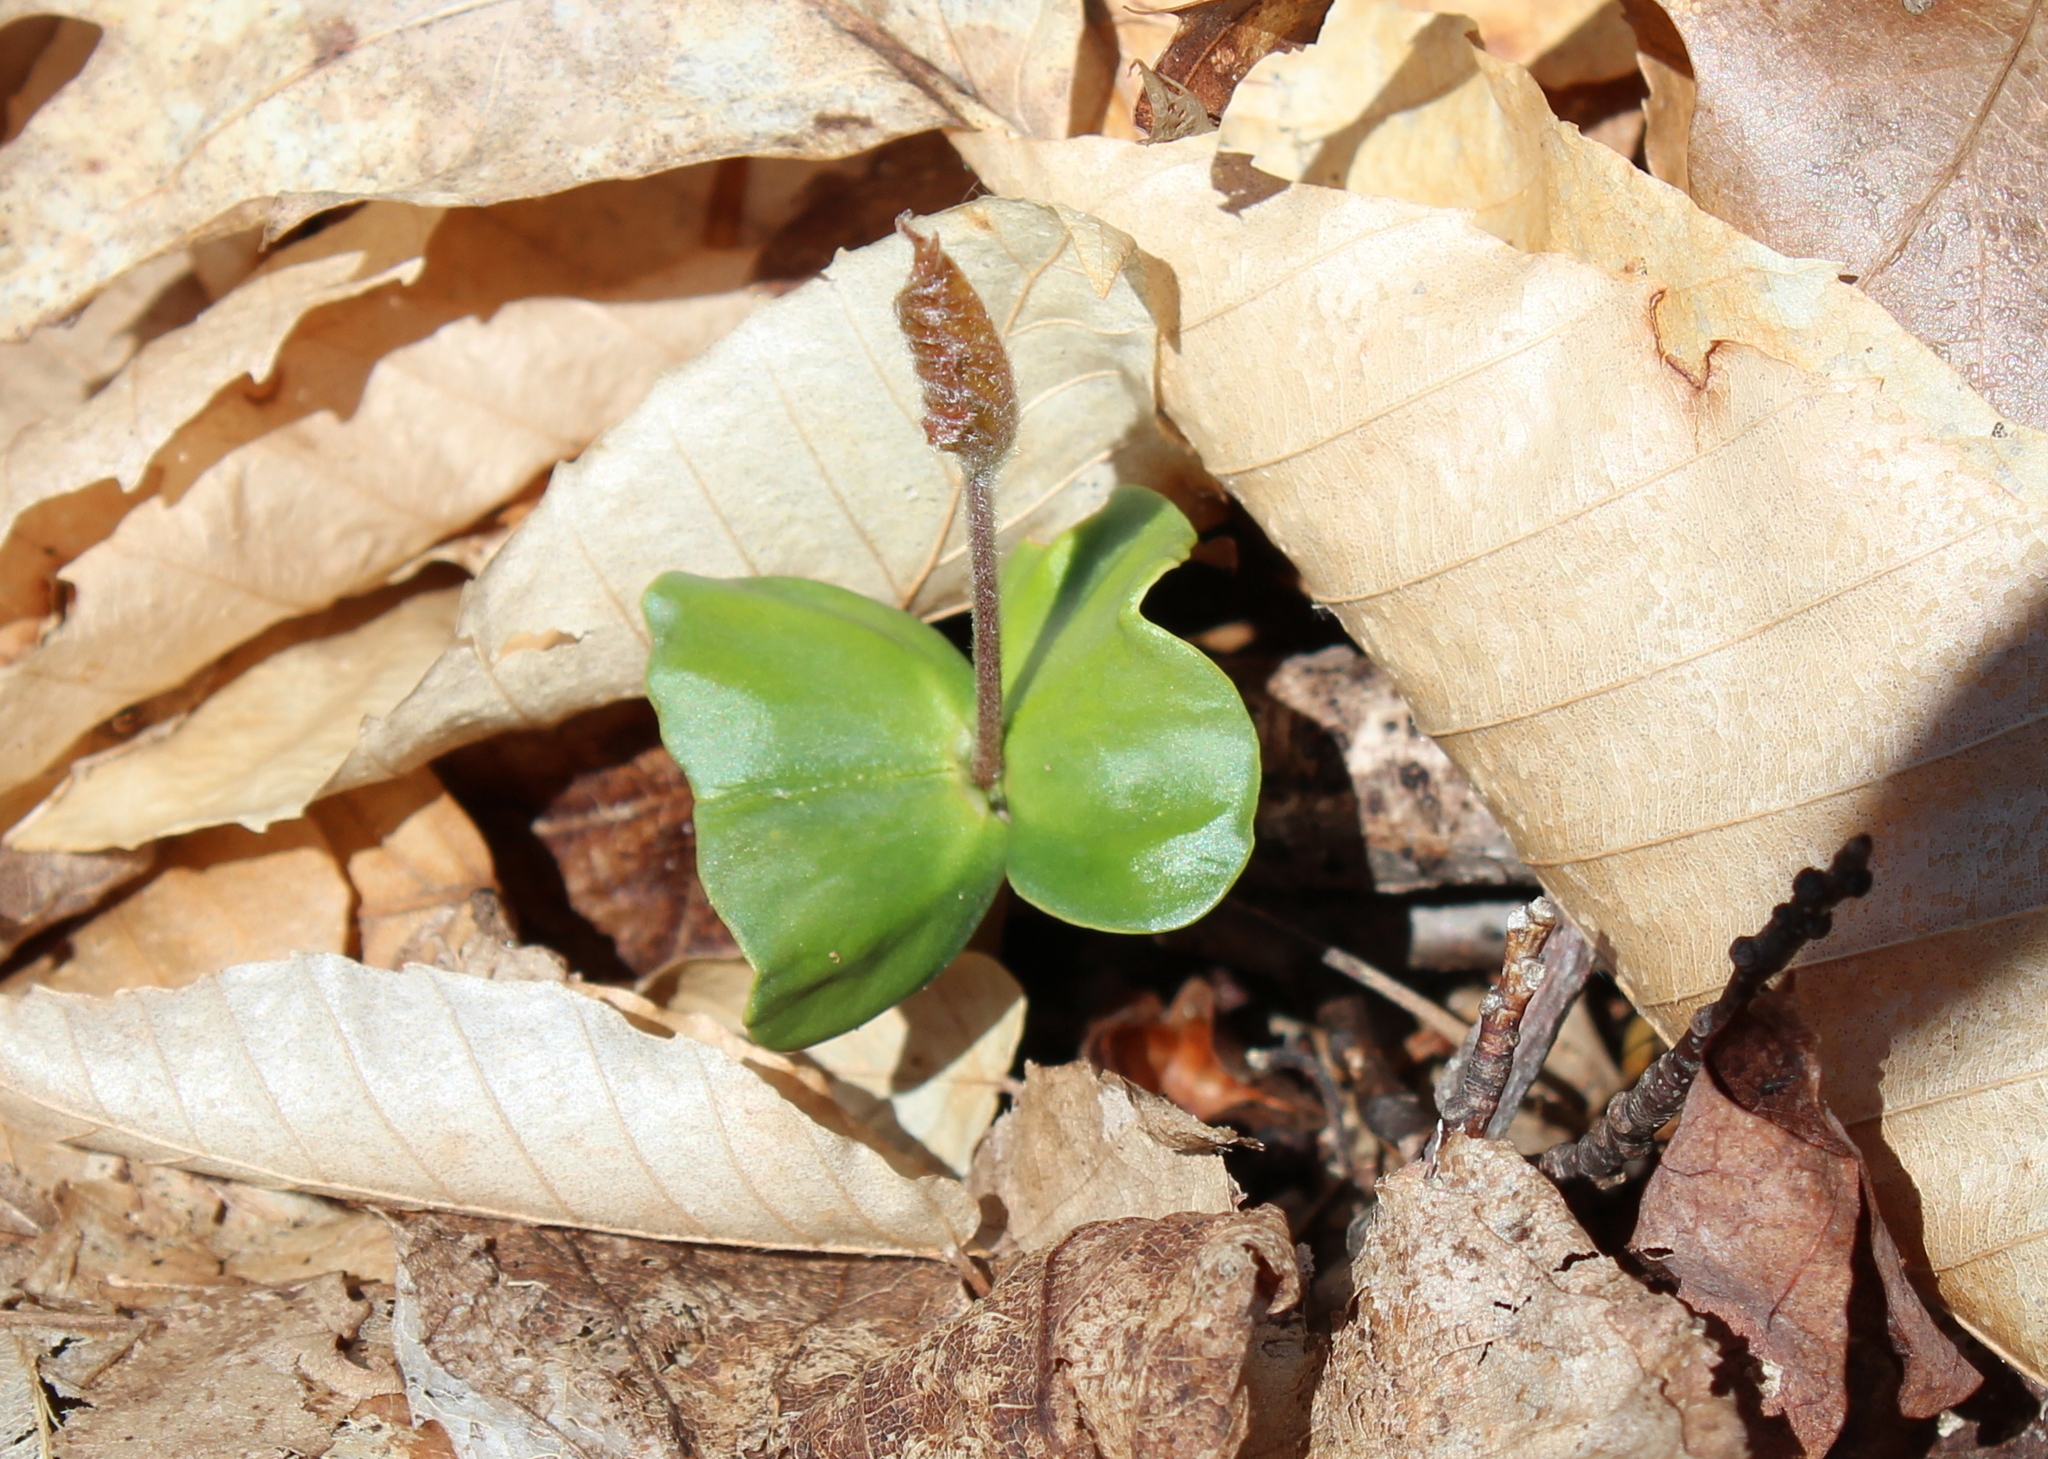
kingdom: Plantae
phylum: Tracheophyta
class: Magnoliopsida
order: Fagales
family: Fagaceae
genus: Fagus
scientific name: Fagus grandifolia
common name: American beech
